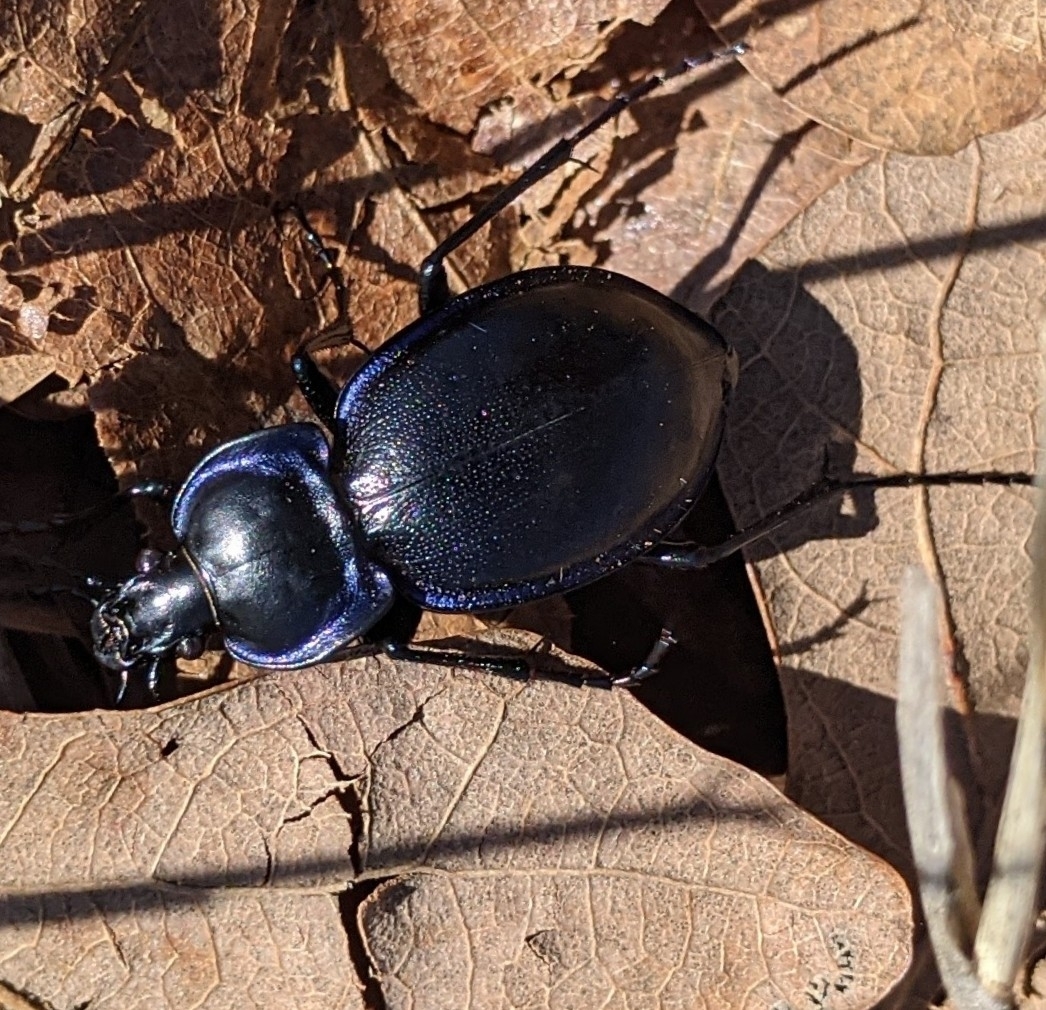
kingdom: Animalia
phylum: Arthropoda
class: Insecta
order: Coleoptera
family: Carabidae
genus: Carabus
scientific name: Carabus finitimus
